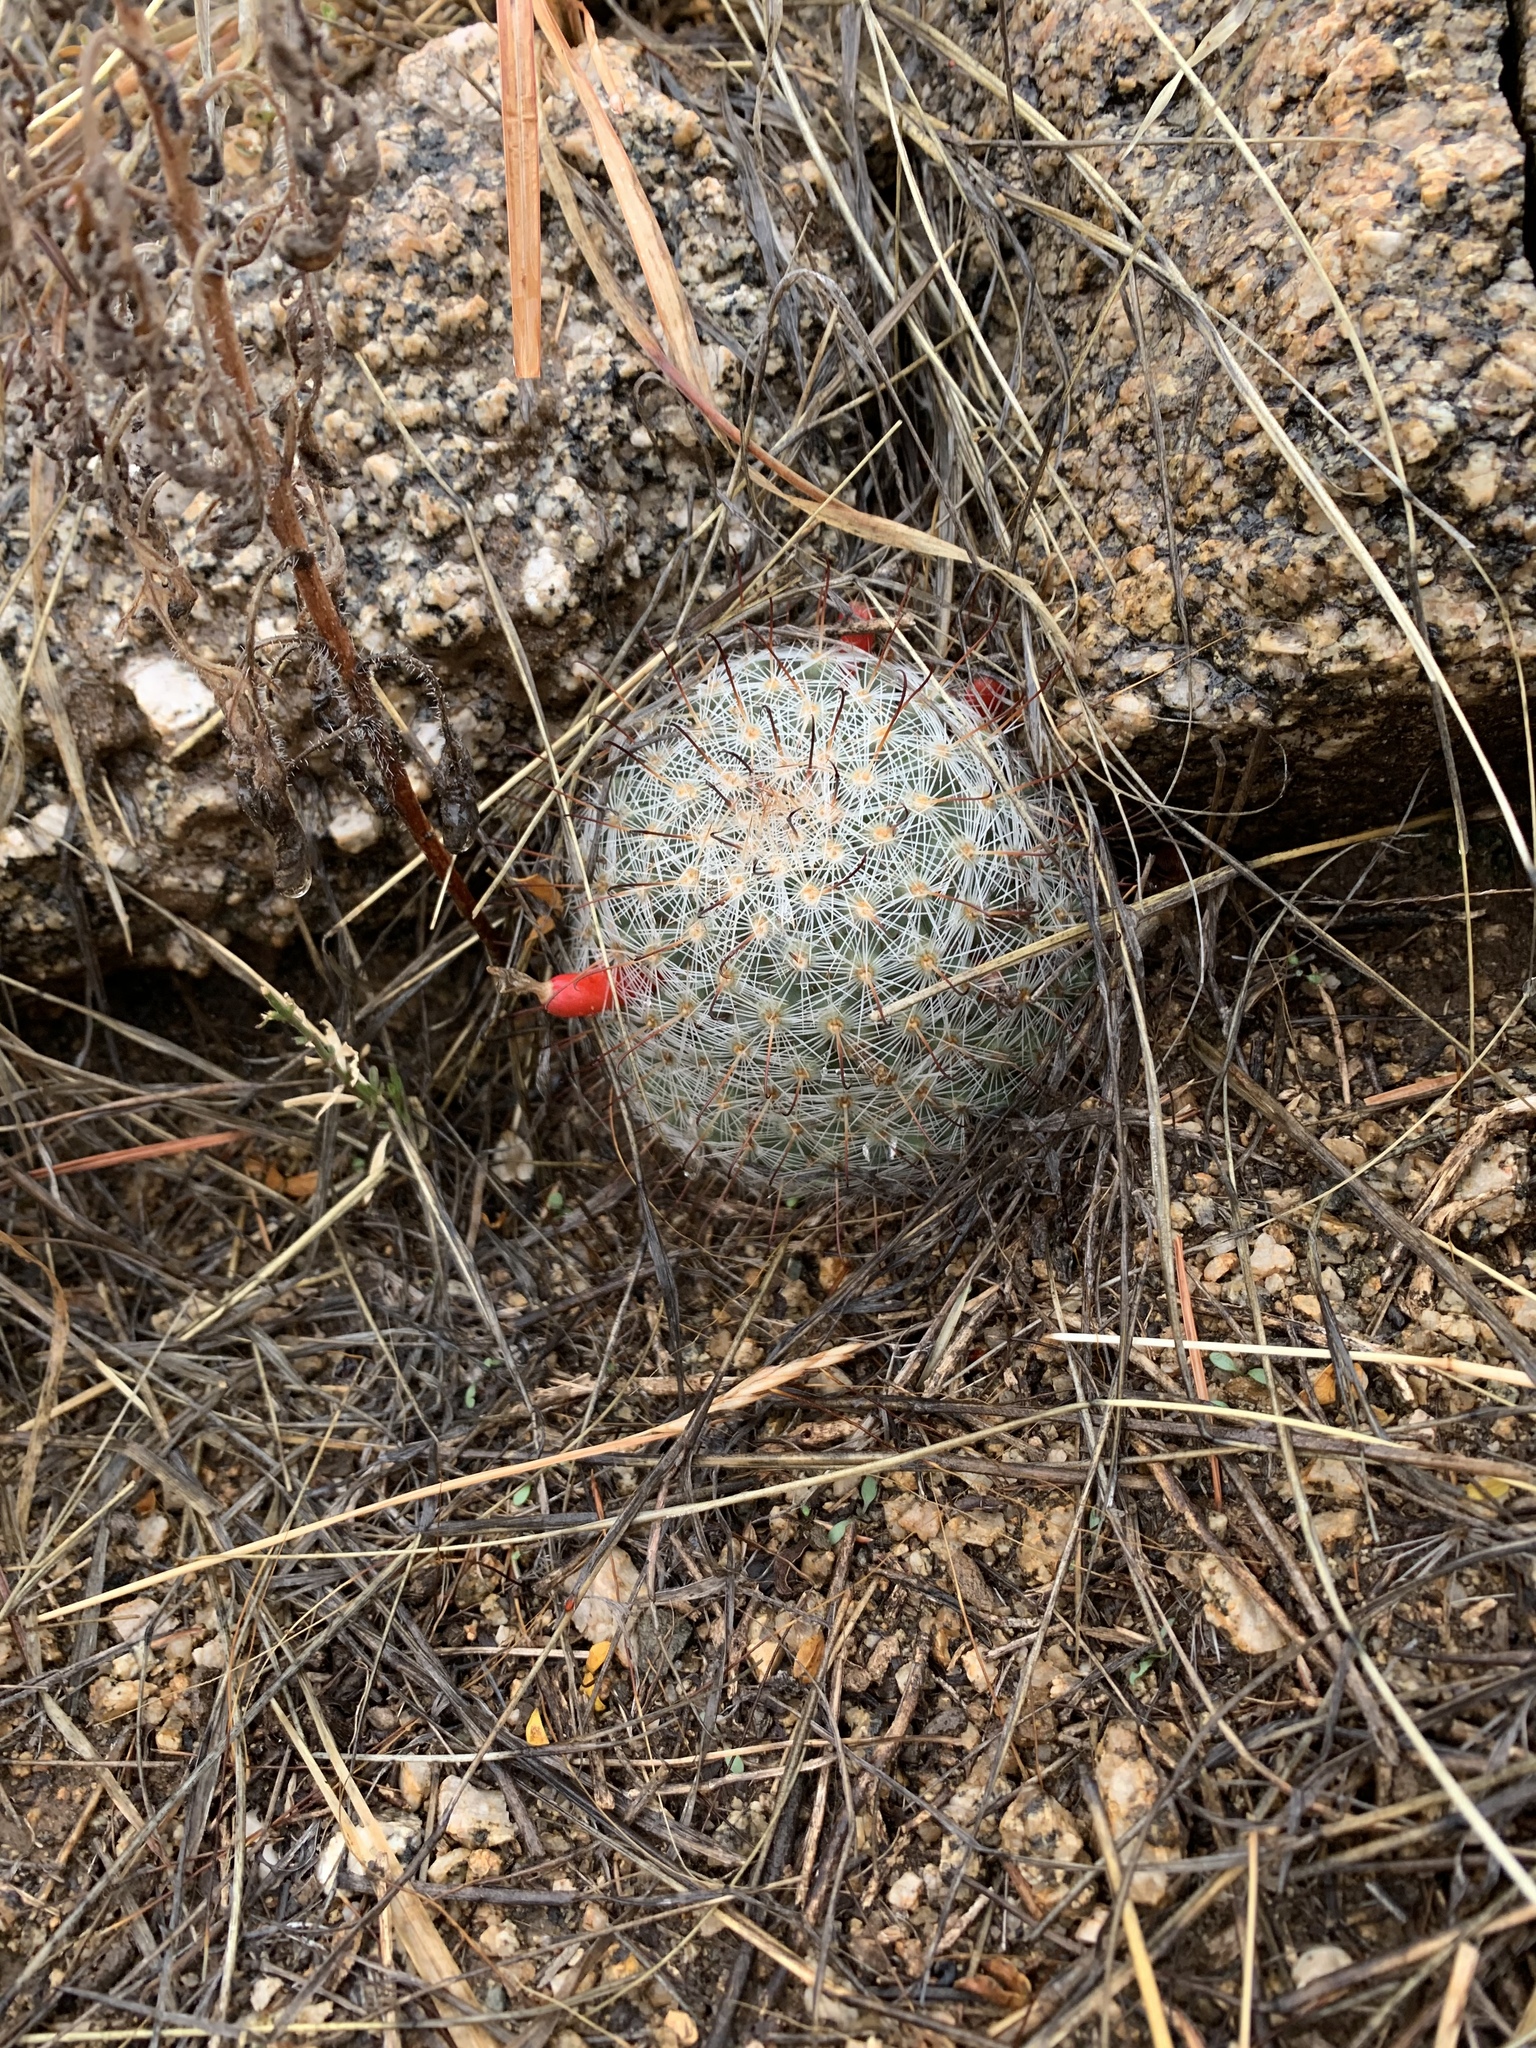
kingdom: Plantae
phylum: Tracheophyta
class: Magnoliopsida
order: Caryophyllales
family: Cactaceae
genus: Cochemiea
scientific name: Cochemiea grahamii
